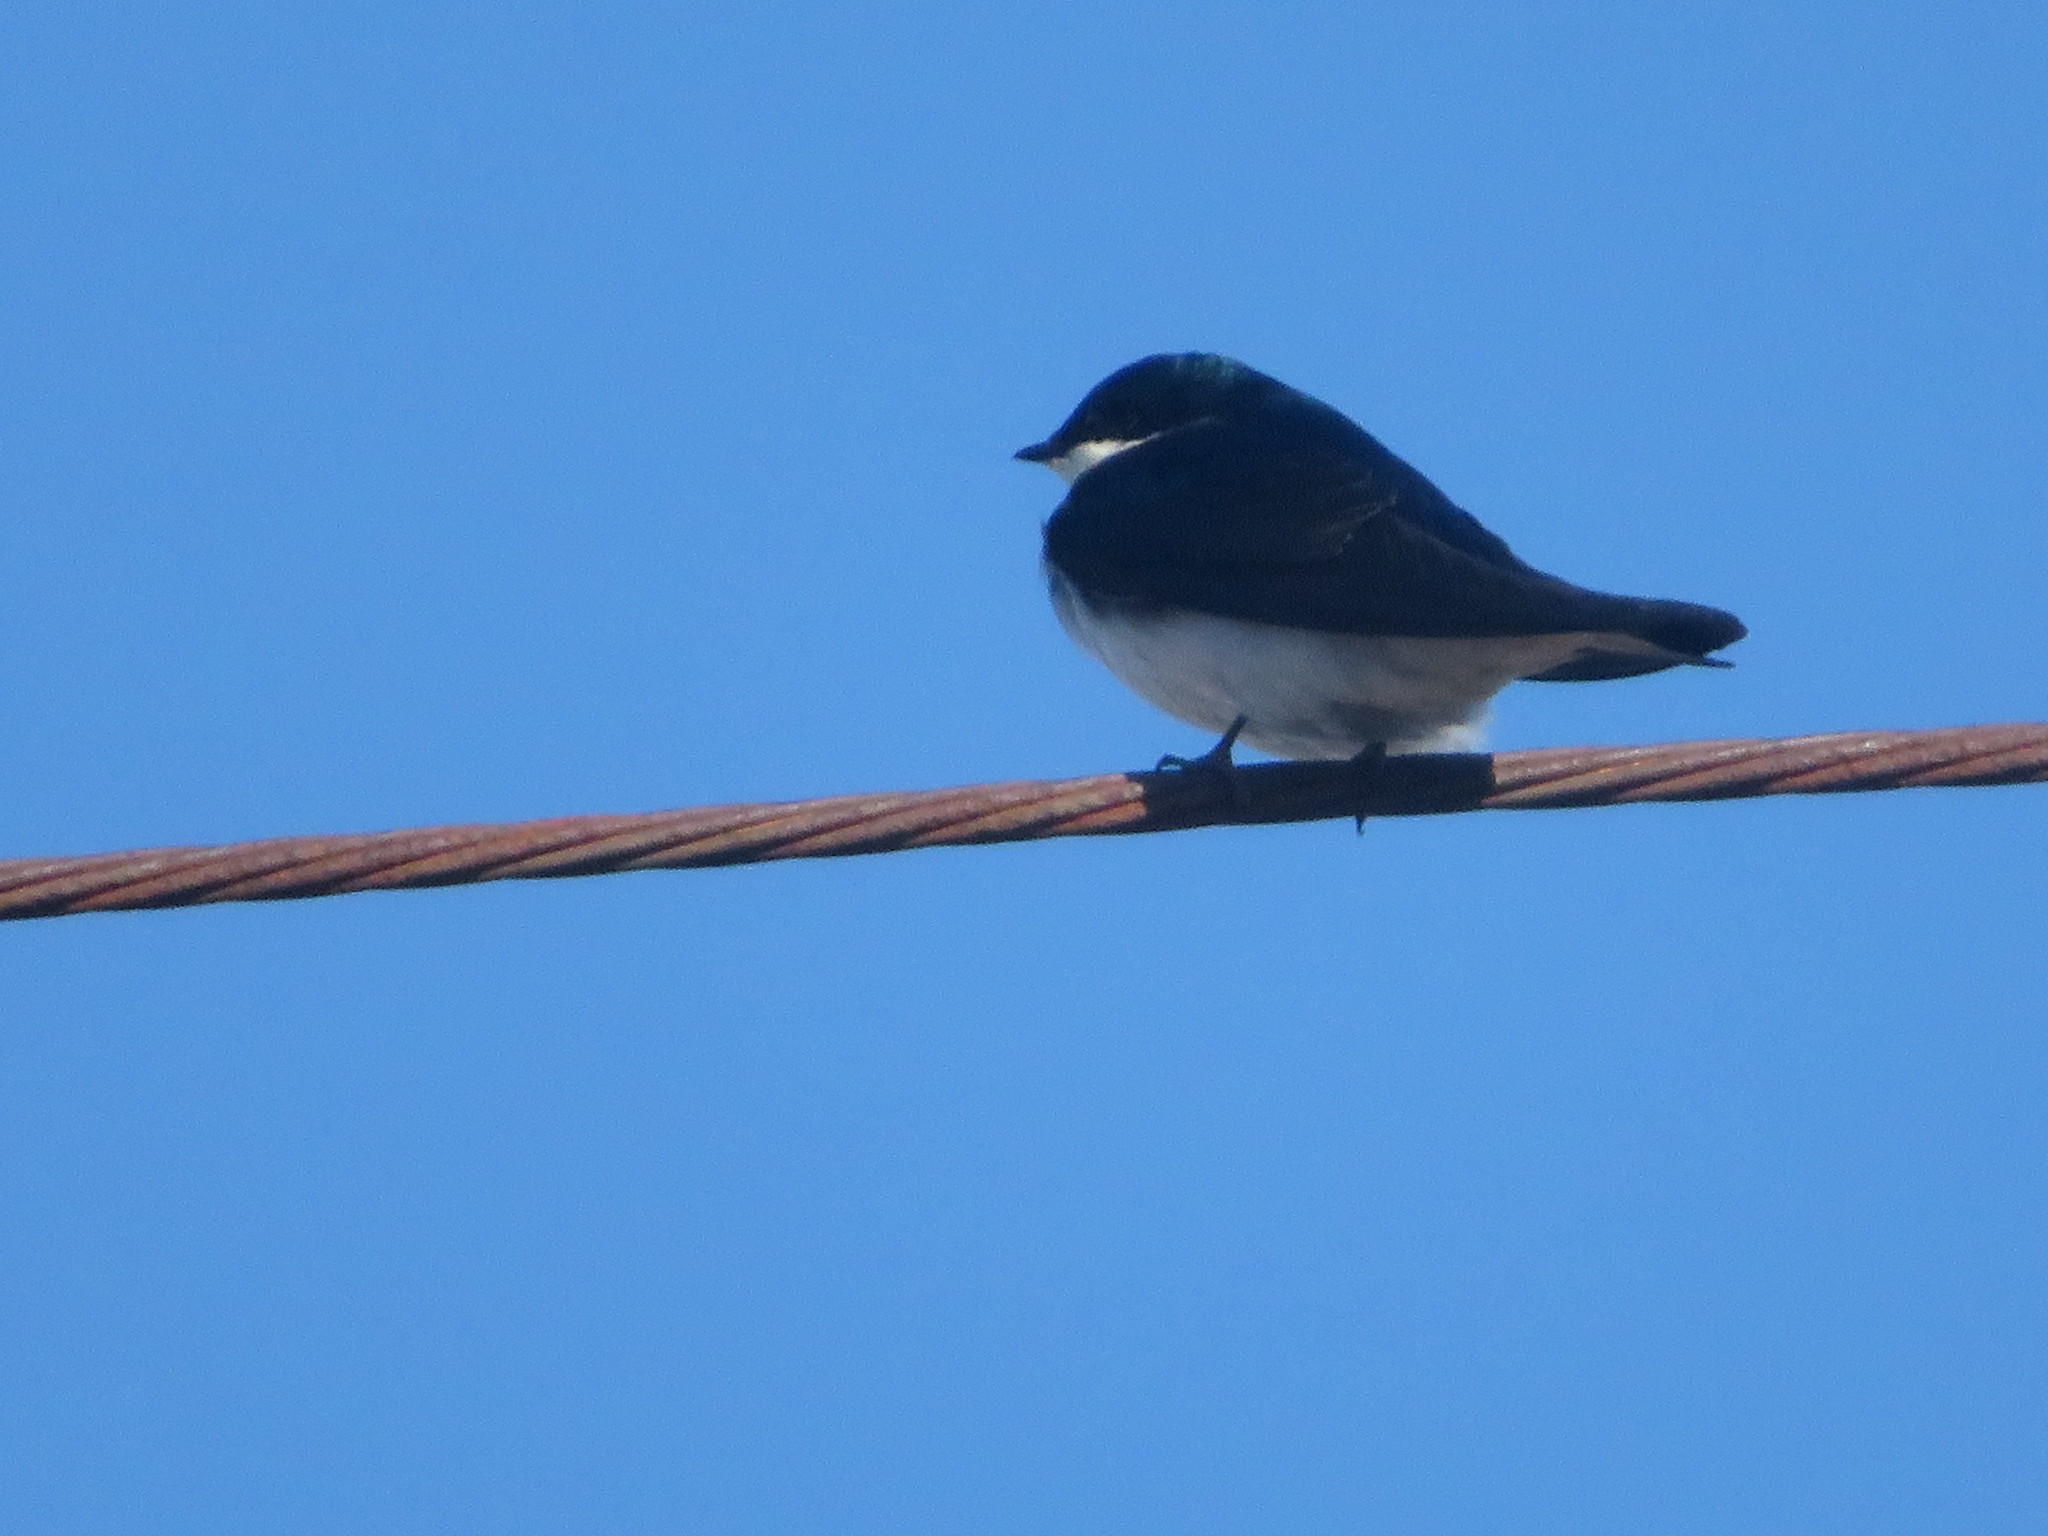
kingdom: Animalia
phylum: Chordata
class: Aves
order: Passeriformes
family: Hirundinidae
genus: Tachycineta
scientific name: Tachycineta bicolor
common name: Tree swallow
